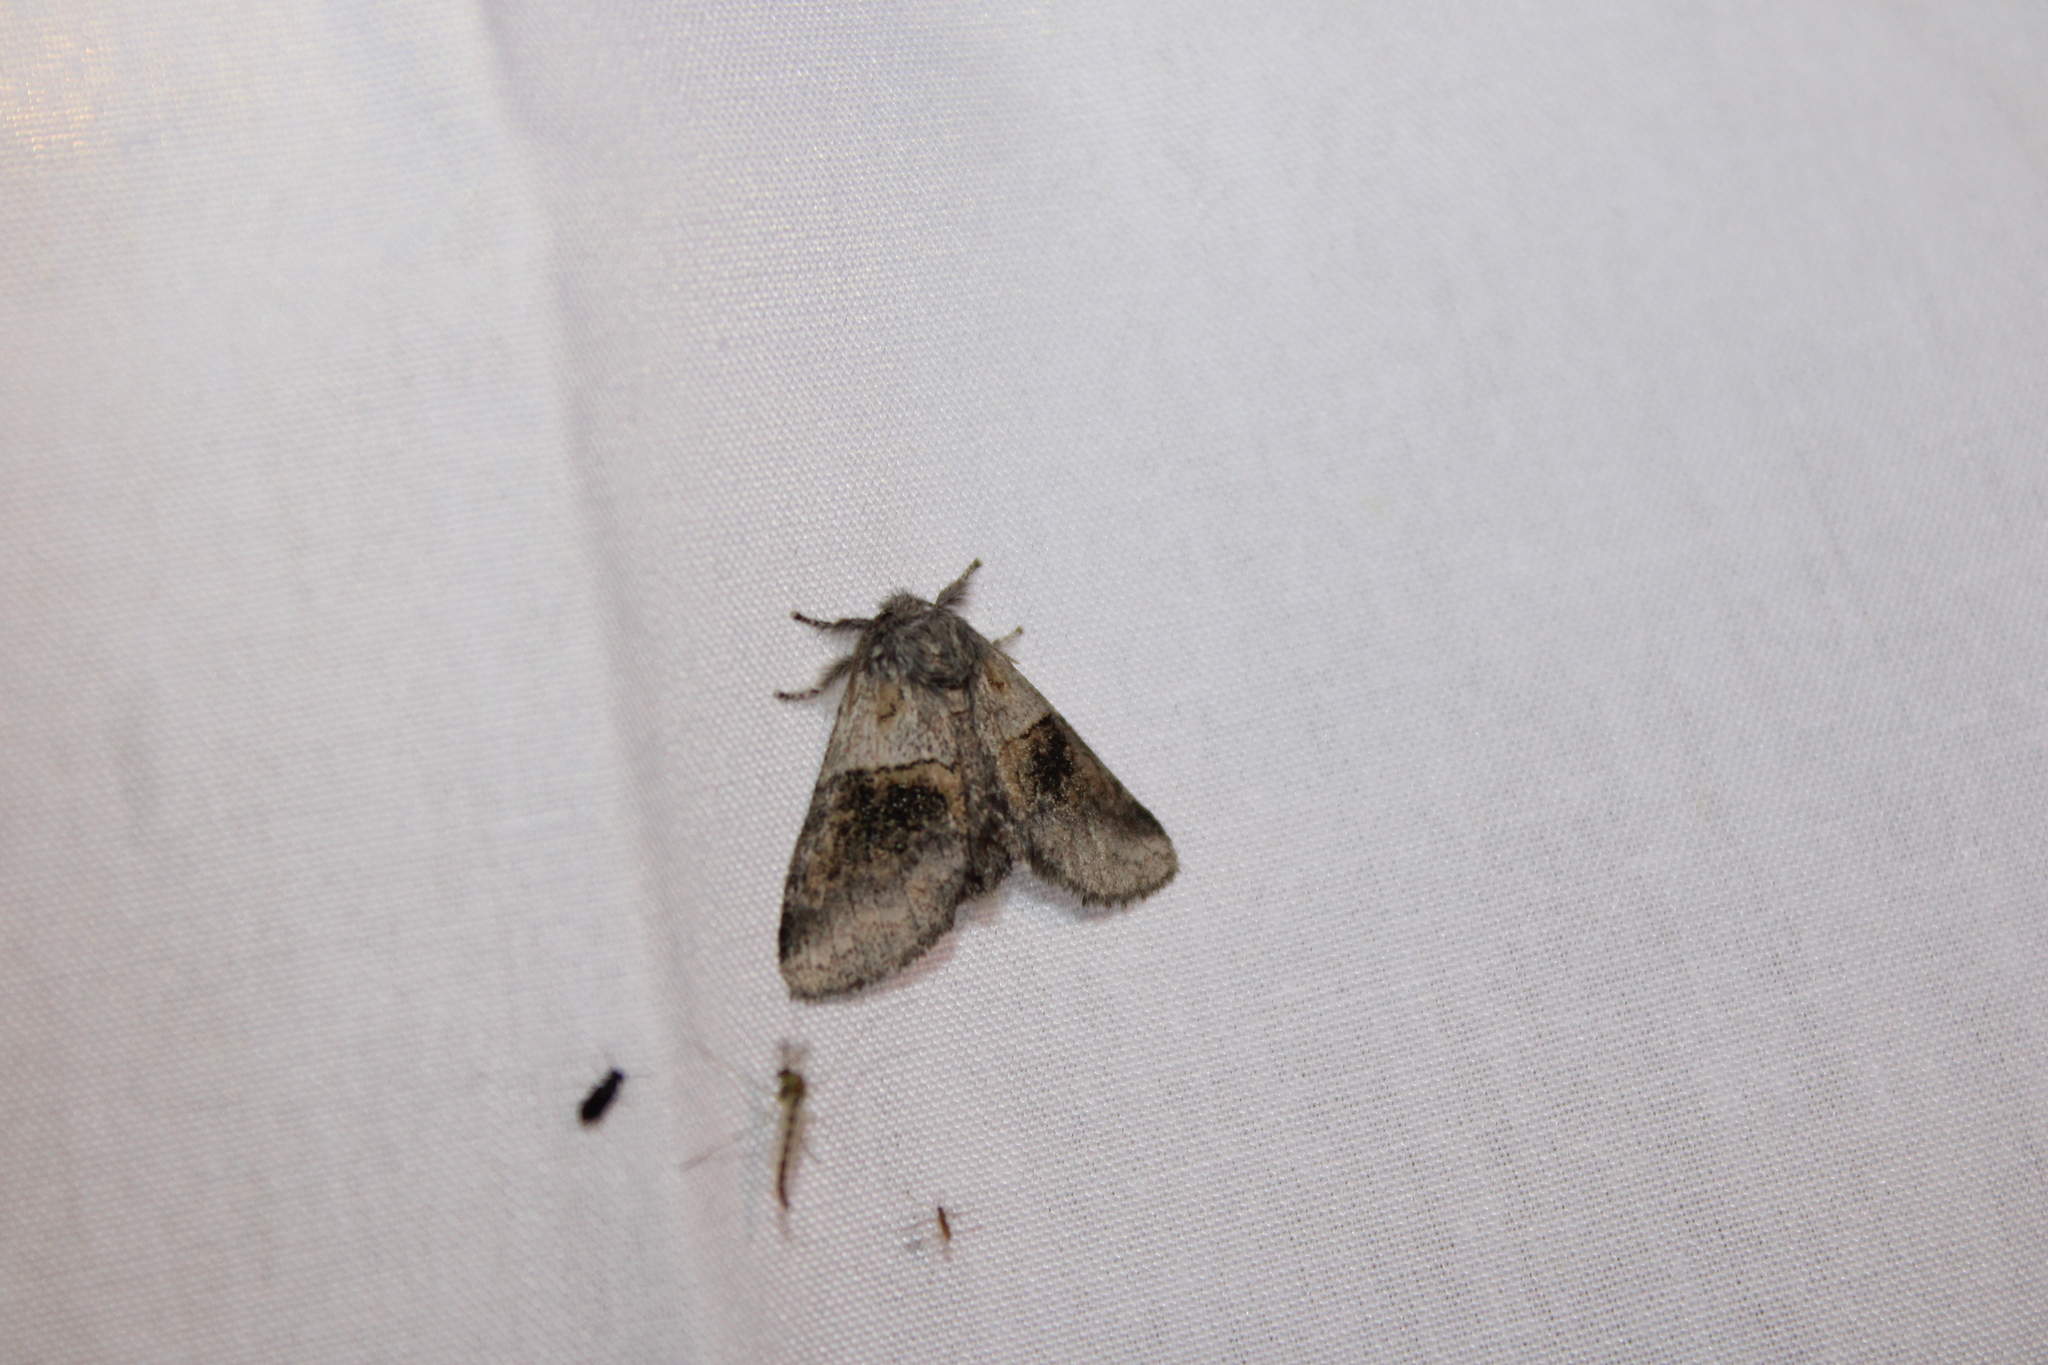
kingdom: Animalia
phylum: Arthropoda
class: Insecta
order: Lepidoptera
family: Notodontidae
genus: Gluphisia
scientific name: Gluphisia septentrionis
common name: Common gluphisia
